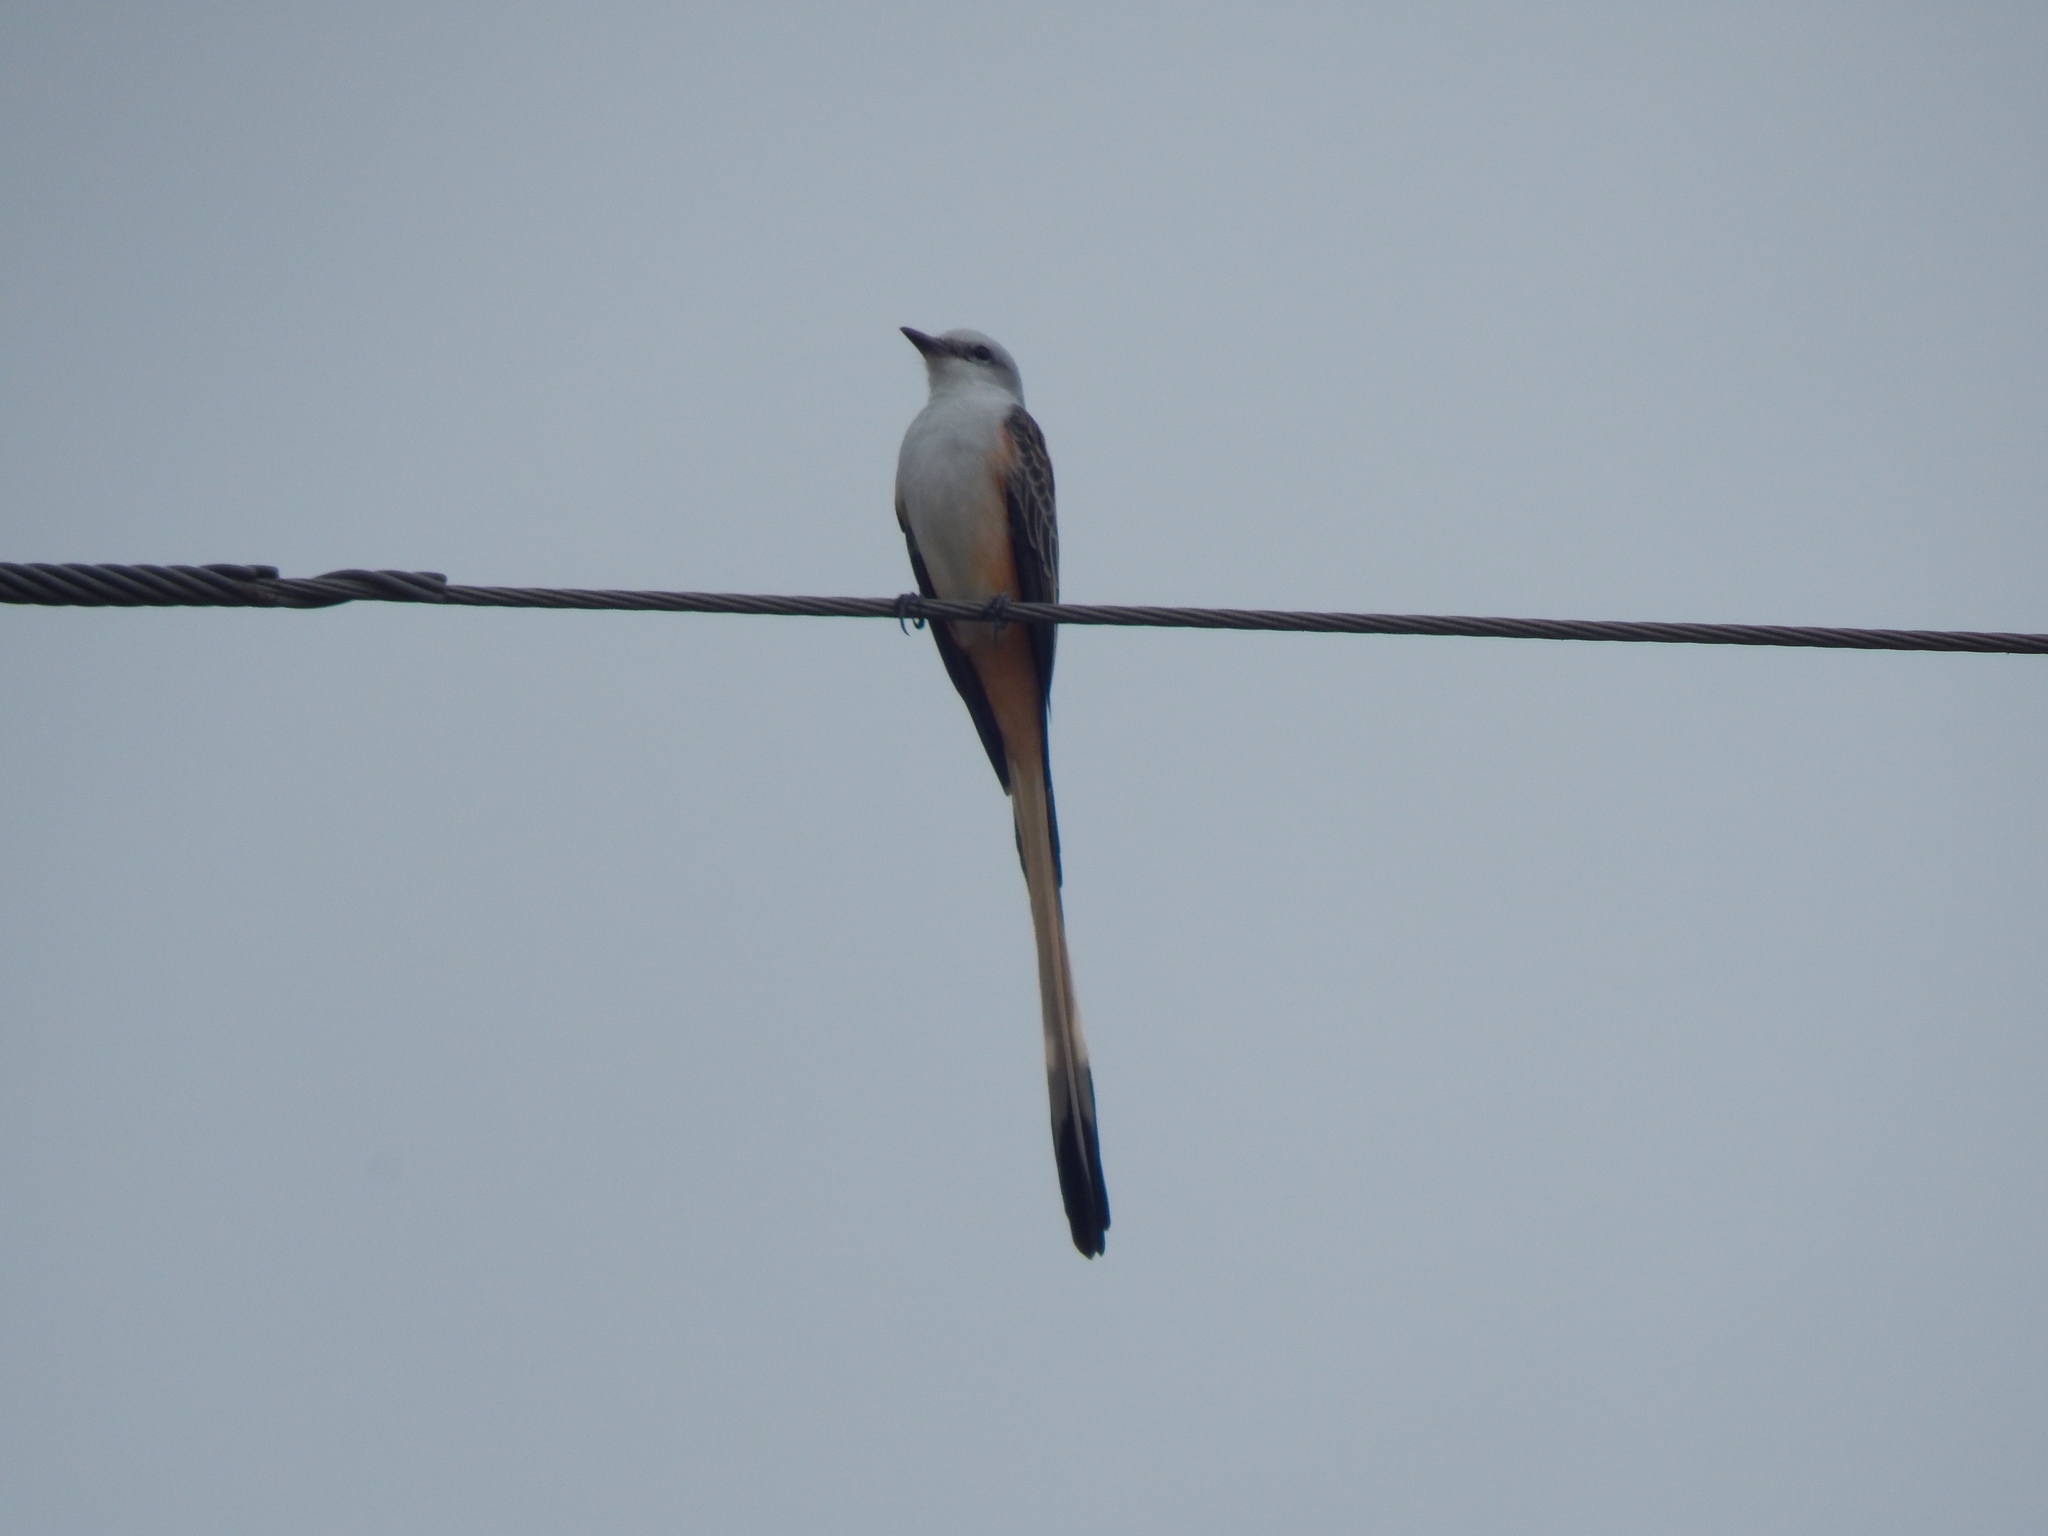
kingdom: Animalia
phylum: Chordata
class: Aves
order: Passeriformes
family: Tyrannidae
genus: Tyrannus
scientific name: Tyrannus forficatus
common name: Scissor-tailed flycatcher
